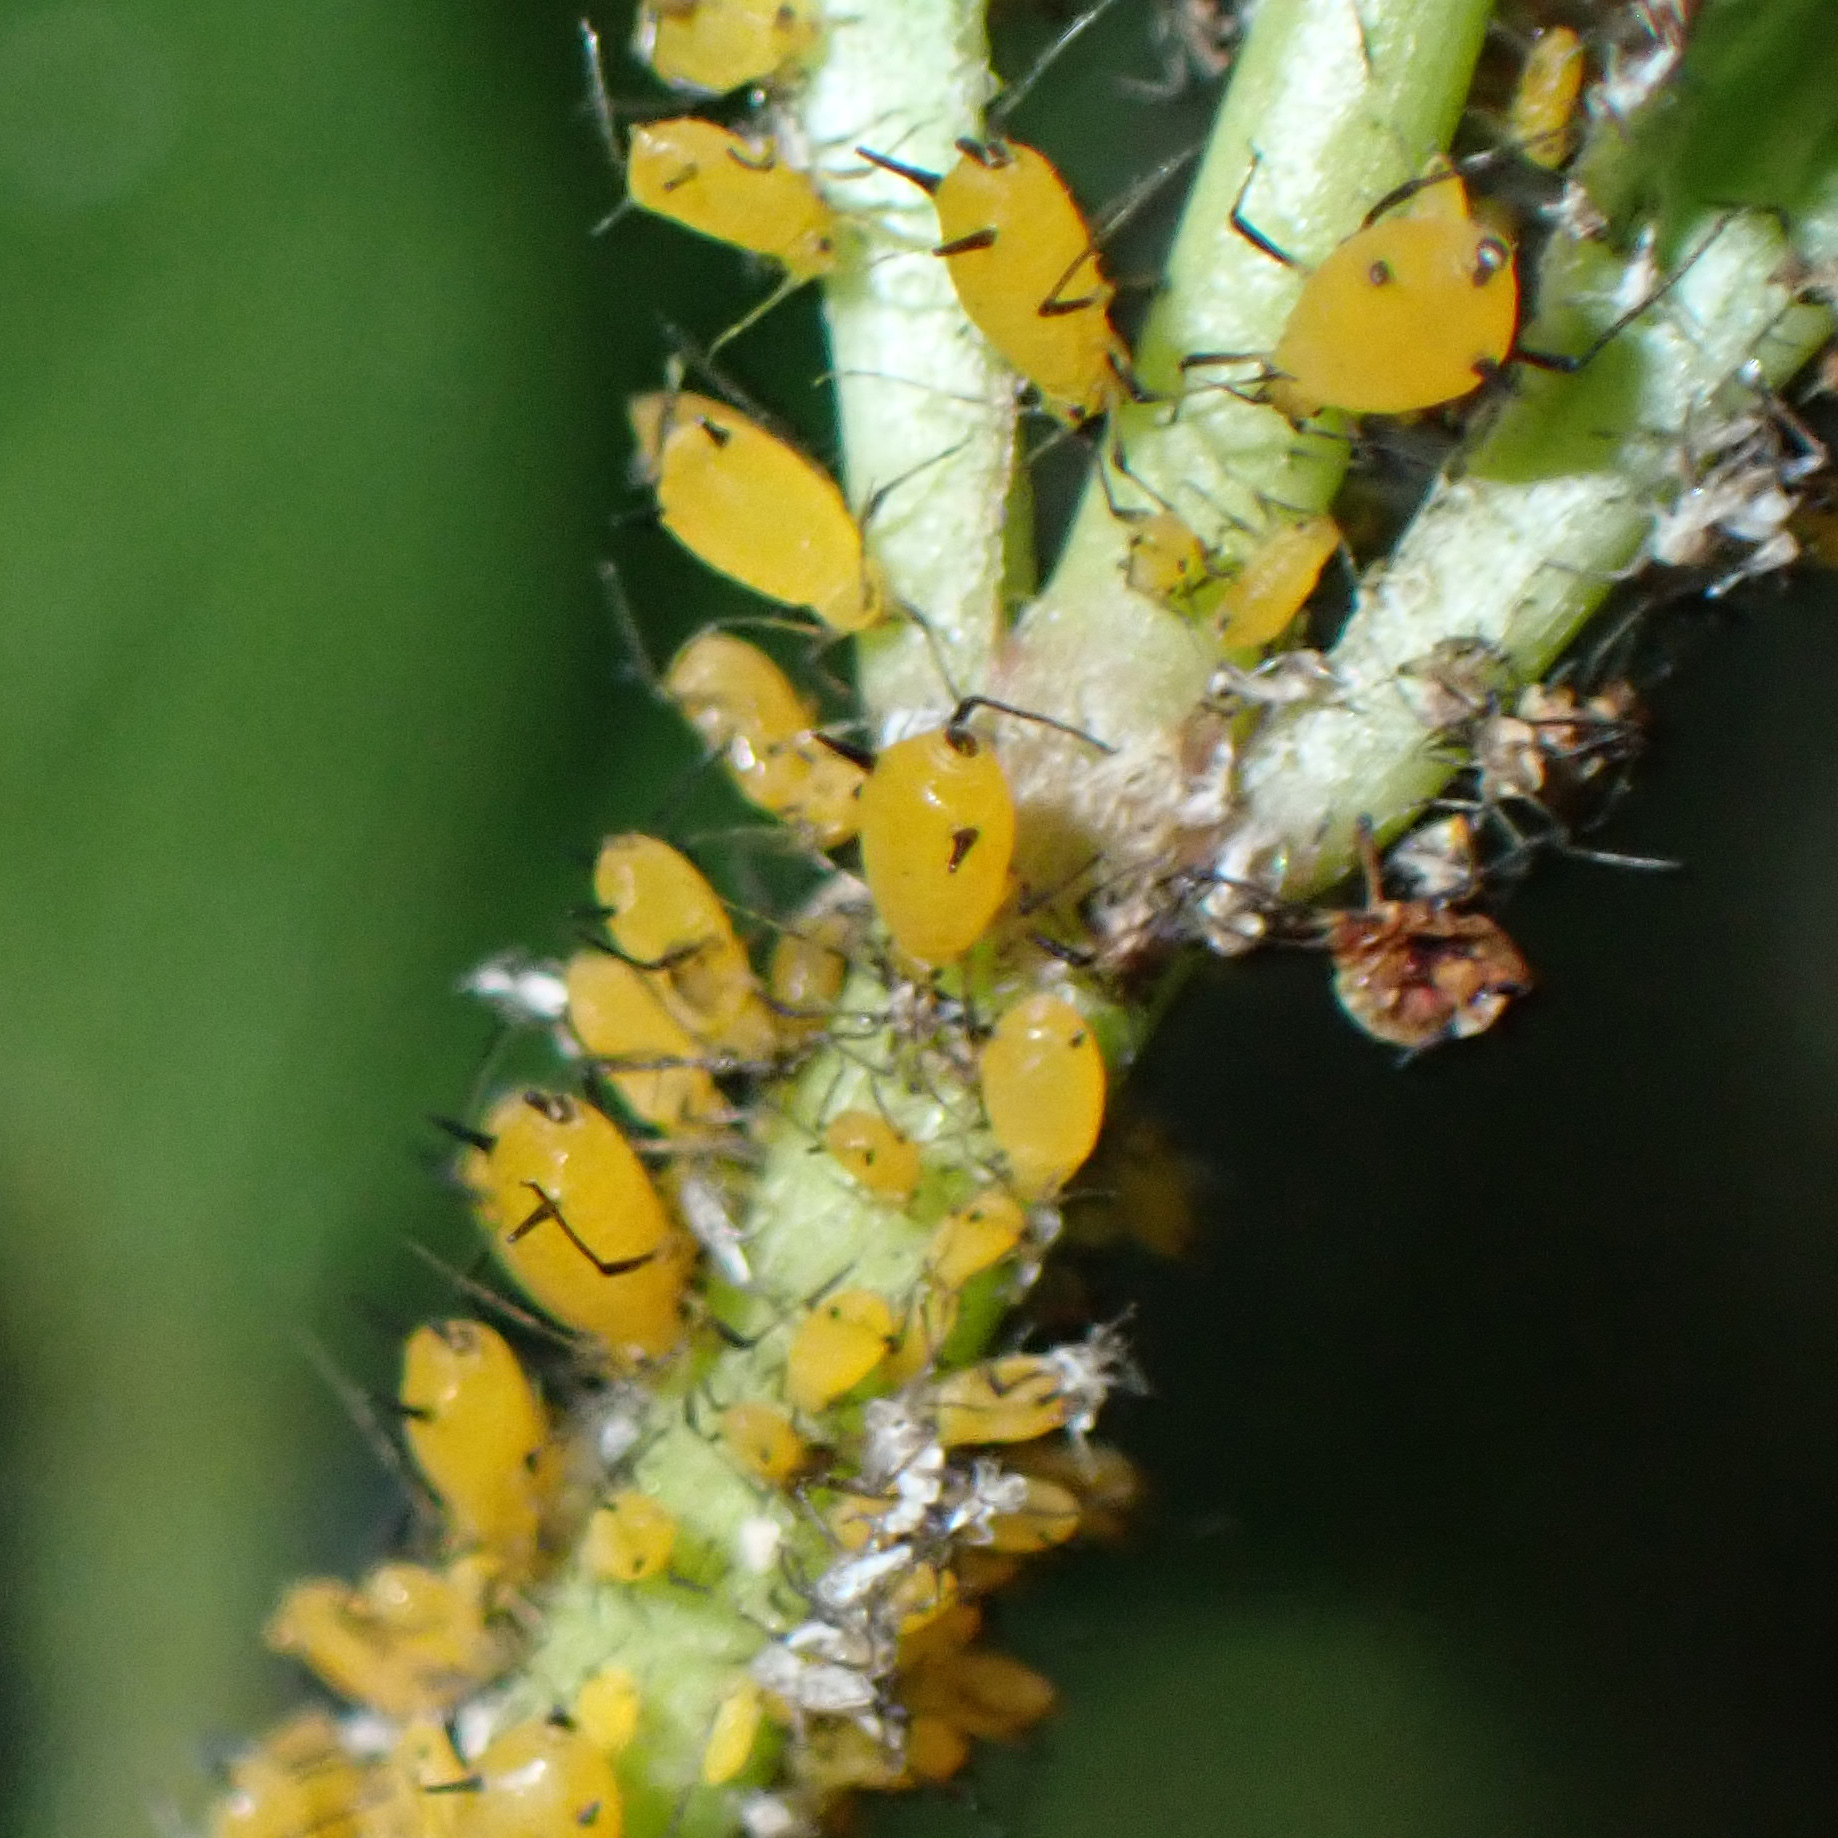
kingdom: Animalia
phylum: Arthropoda
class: Insecta
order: Hemiptera
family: Aphididae
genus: Aphis
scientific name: Aphis nerii
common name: Oleander aphid
